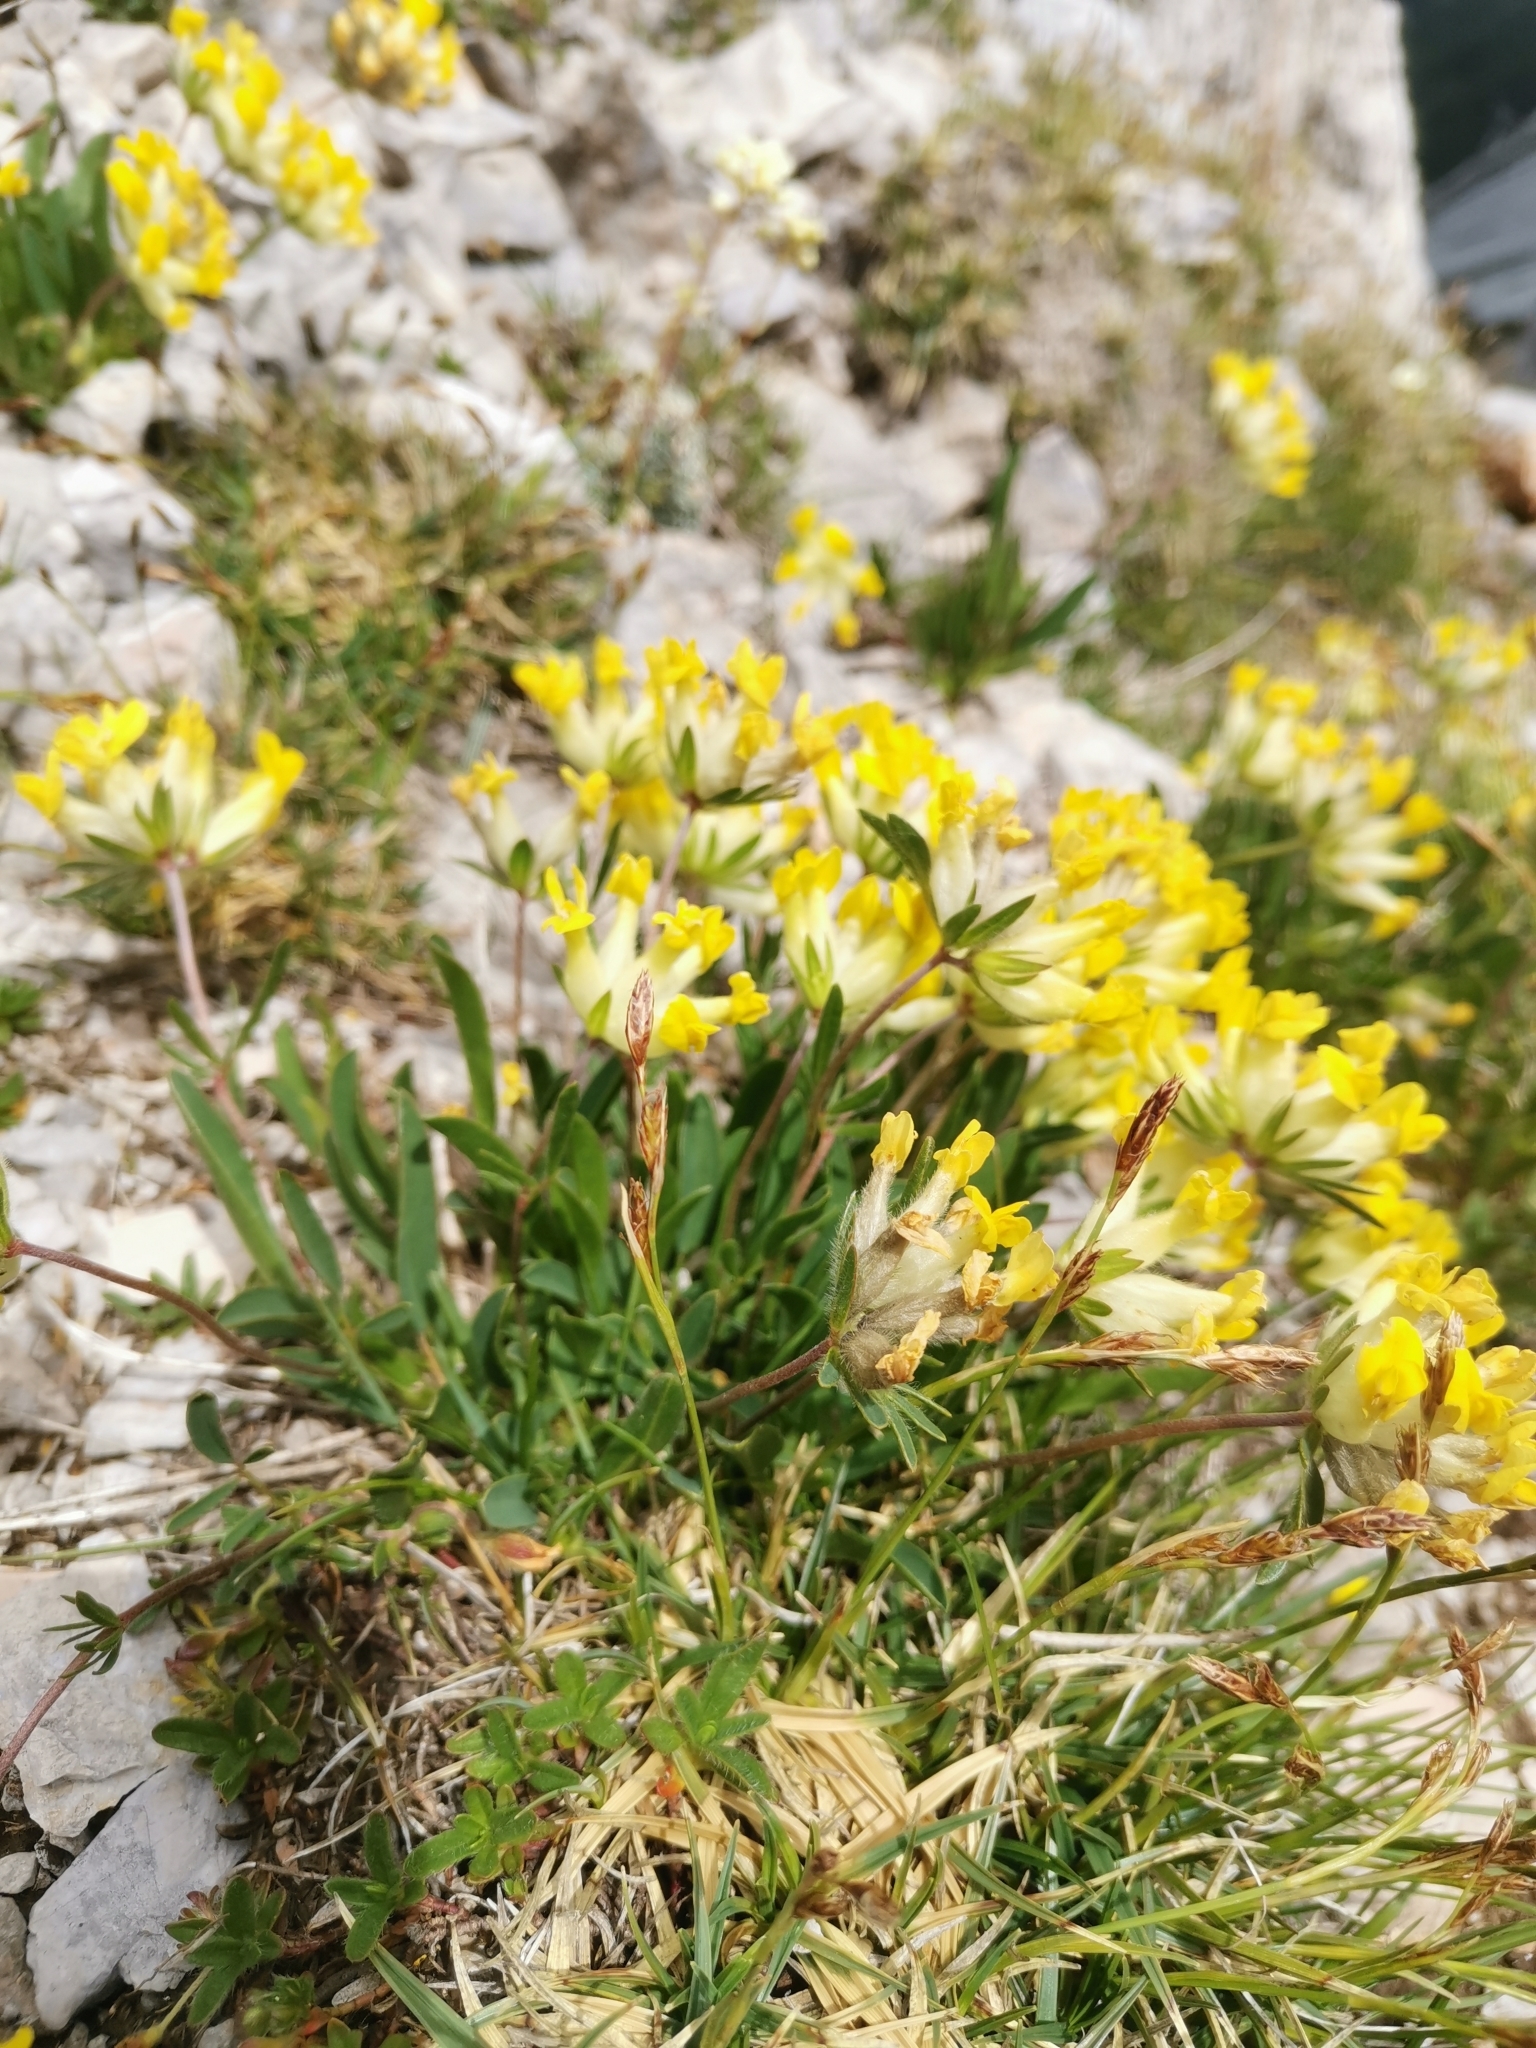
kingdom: Plantae
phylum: Tracheophyta
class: Magnoliopsida
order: Fabales
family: Fabaceae
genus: Anthyllis
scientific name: Anthyllis vulneraria
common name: Kidney vetch
